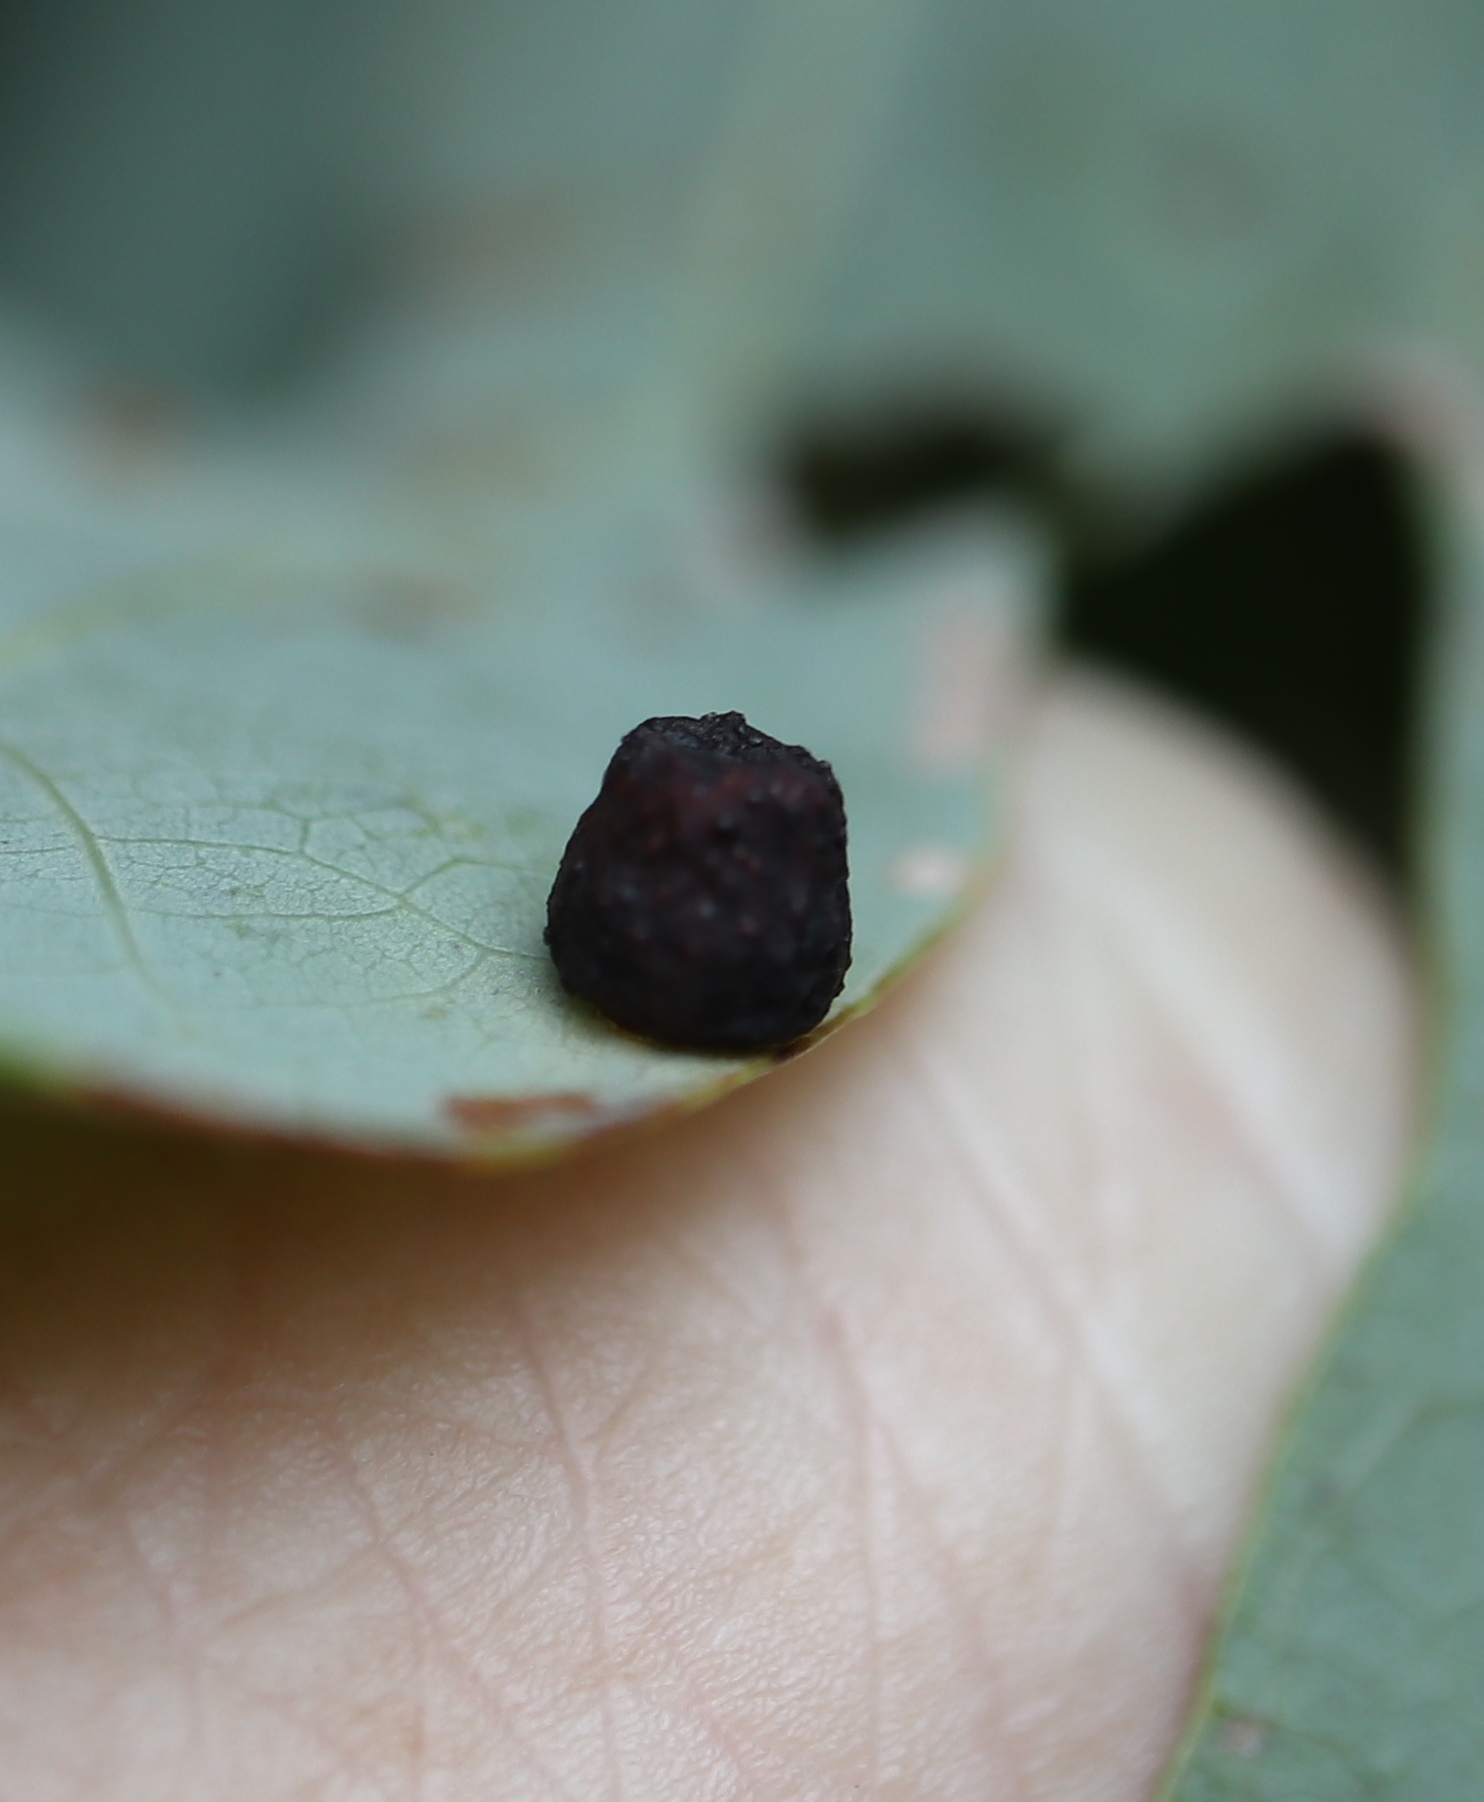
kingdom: Animalia
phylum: Arthropoda
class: Insecta
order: Hymenoptera
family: Cynipidae
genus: Andricus
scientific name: Andricus
